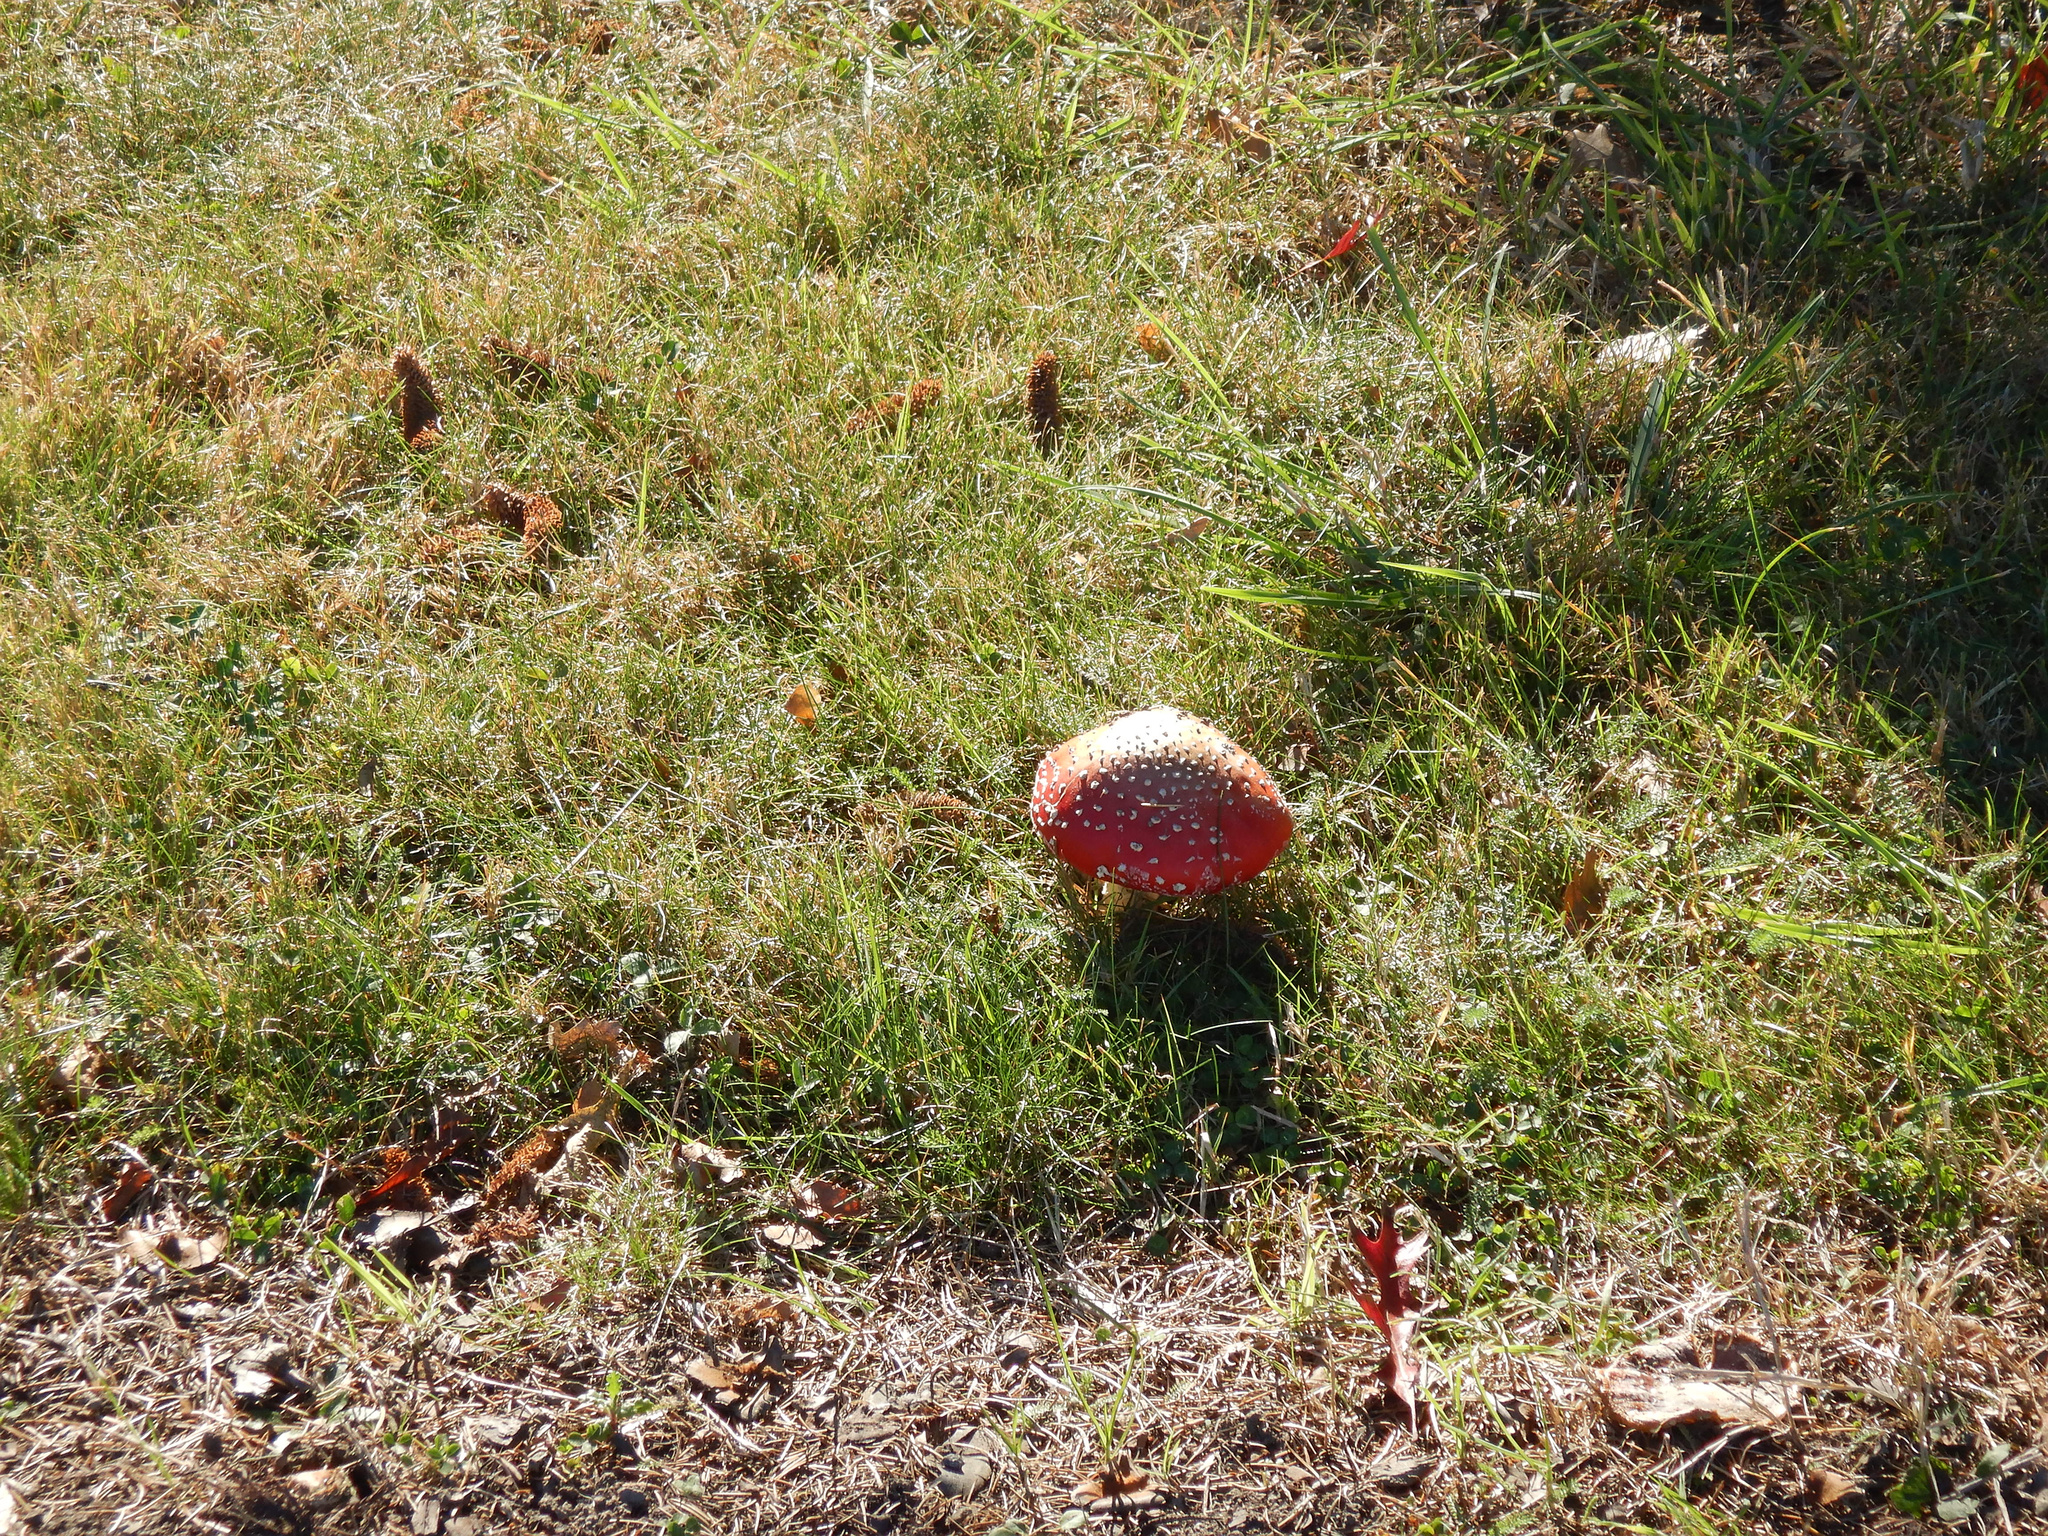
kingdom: Fungi
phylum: Basidiomycota
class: Agaricomycetes
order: Agaricales
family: Amanitaceae
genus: Amanita
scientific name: Amanita muscaria
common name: Fly agaric
